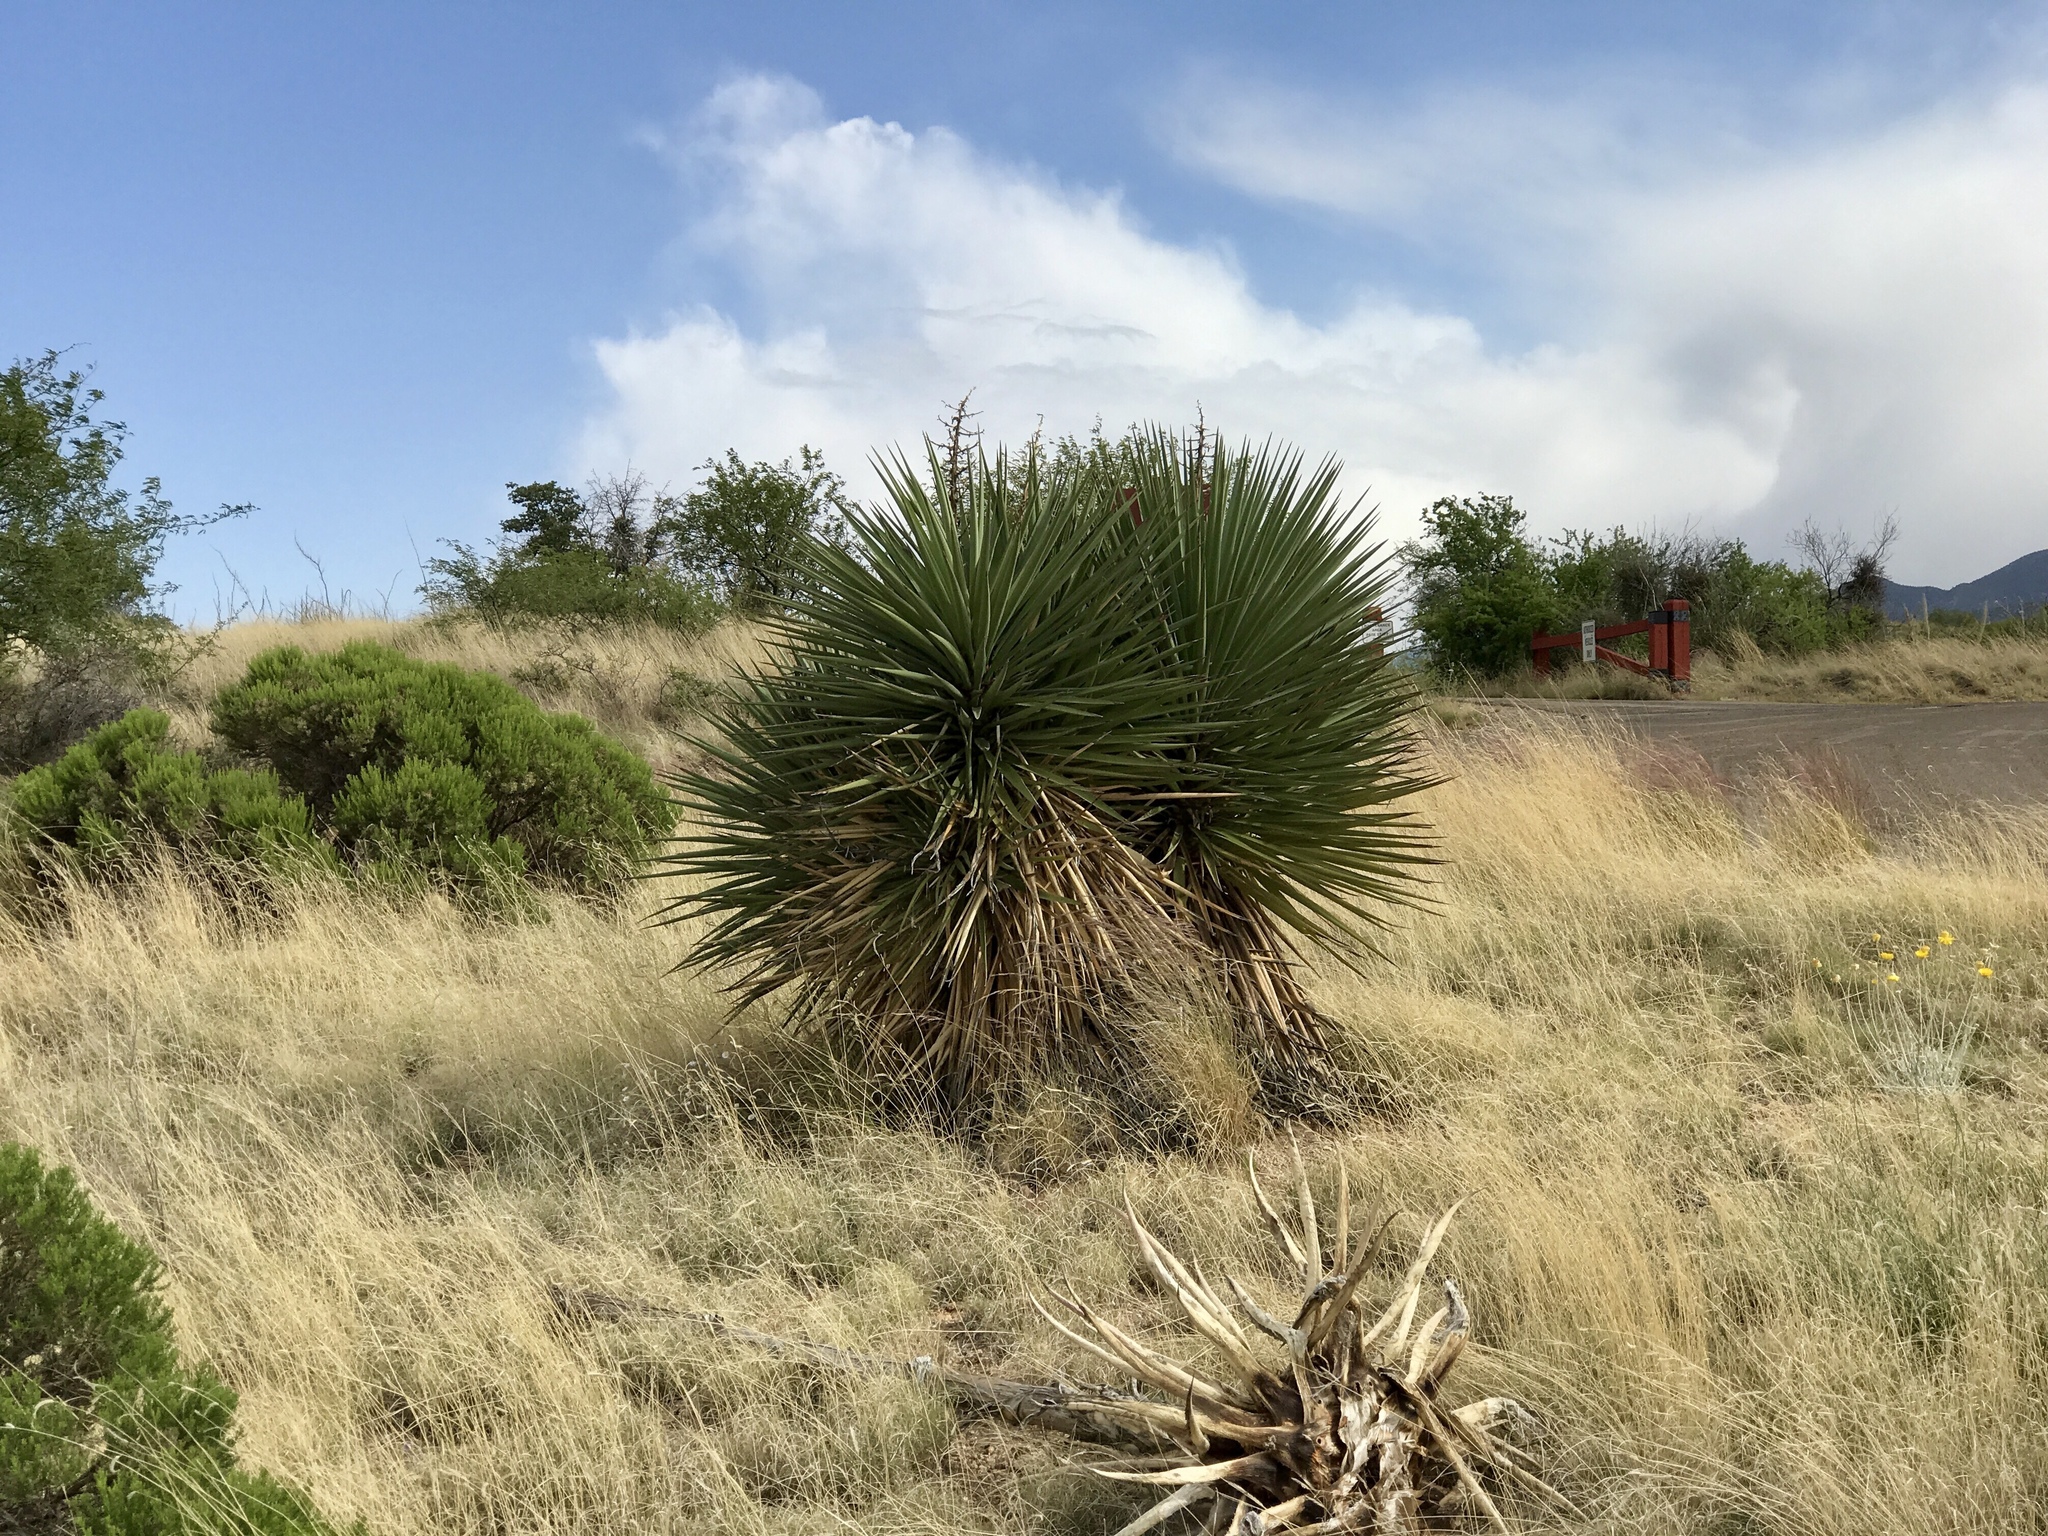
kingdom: Plantae
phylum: Tracheophyta
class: Liliopsida
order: Asparagales
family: Asparagaceae
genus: Yucca
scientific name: Yucca madrensis
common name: Hoary yucca
